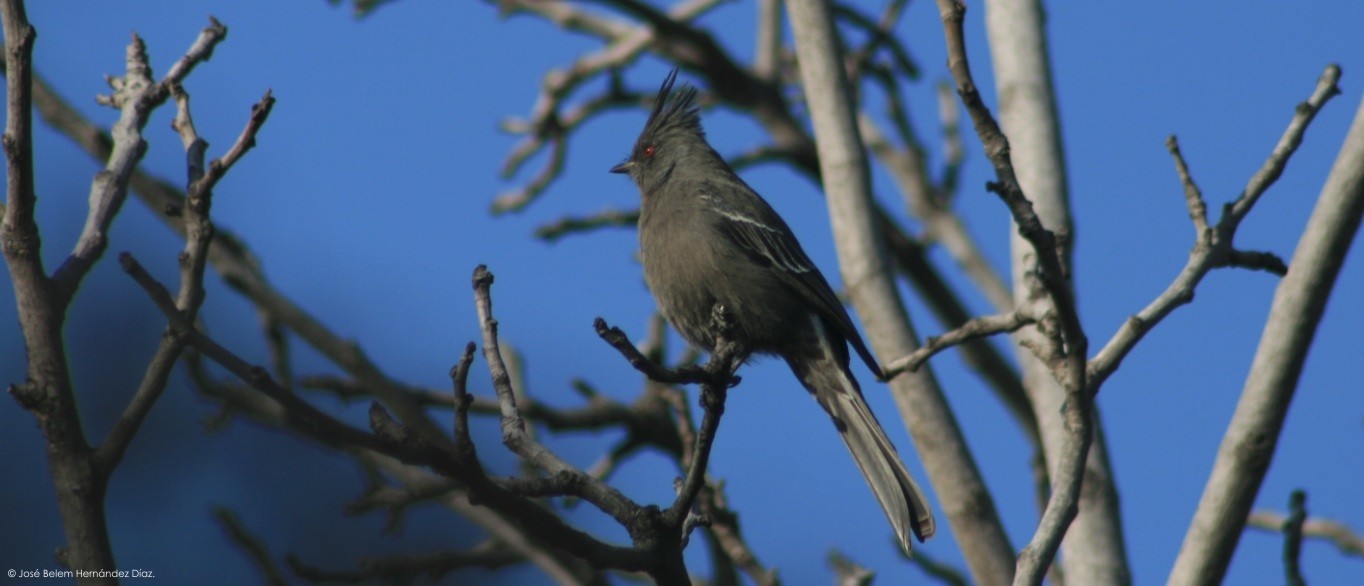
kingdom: Animalia
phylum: Chordata
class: Aves
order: Passeriformes
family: Ptilogonatidae
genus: Phainopepla
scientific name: Phainopepla nitens
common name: Phainopepla
